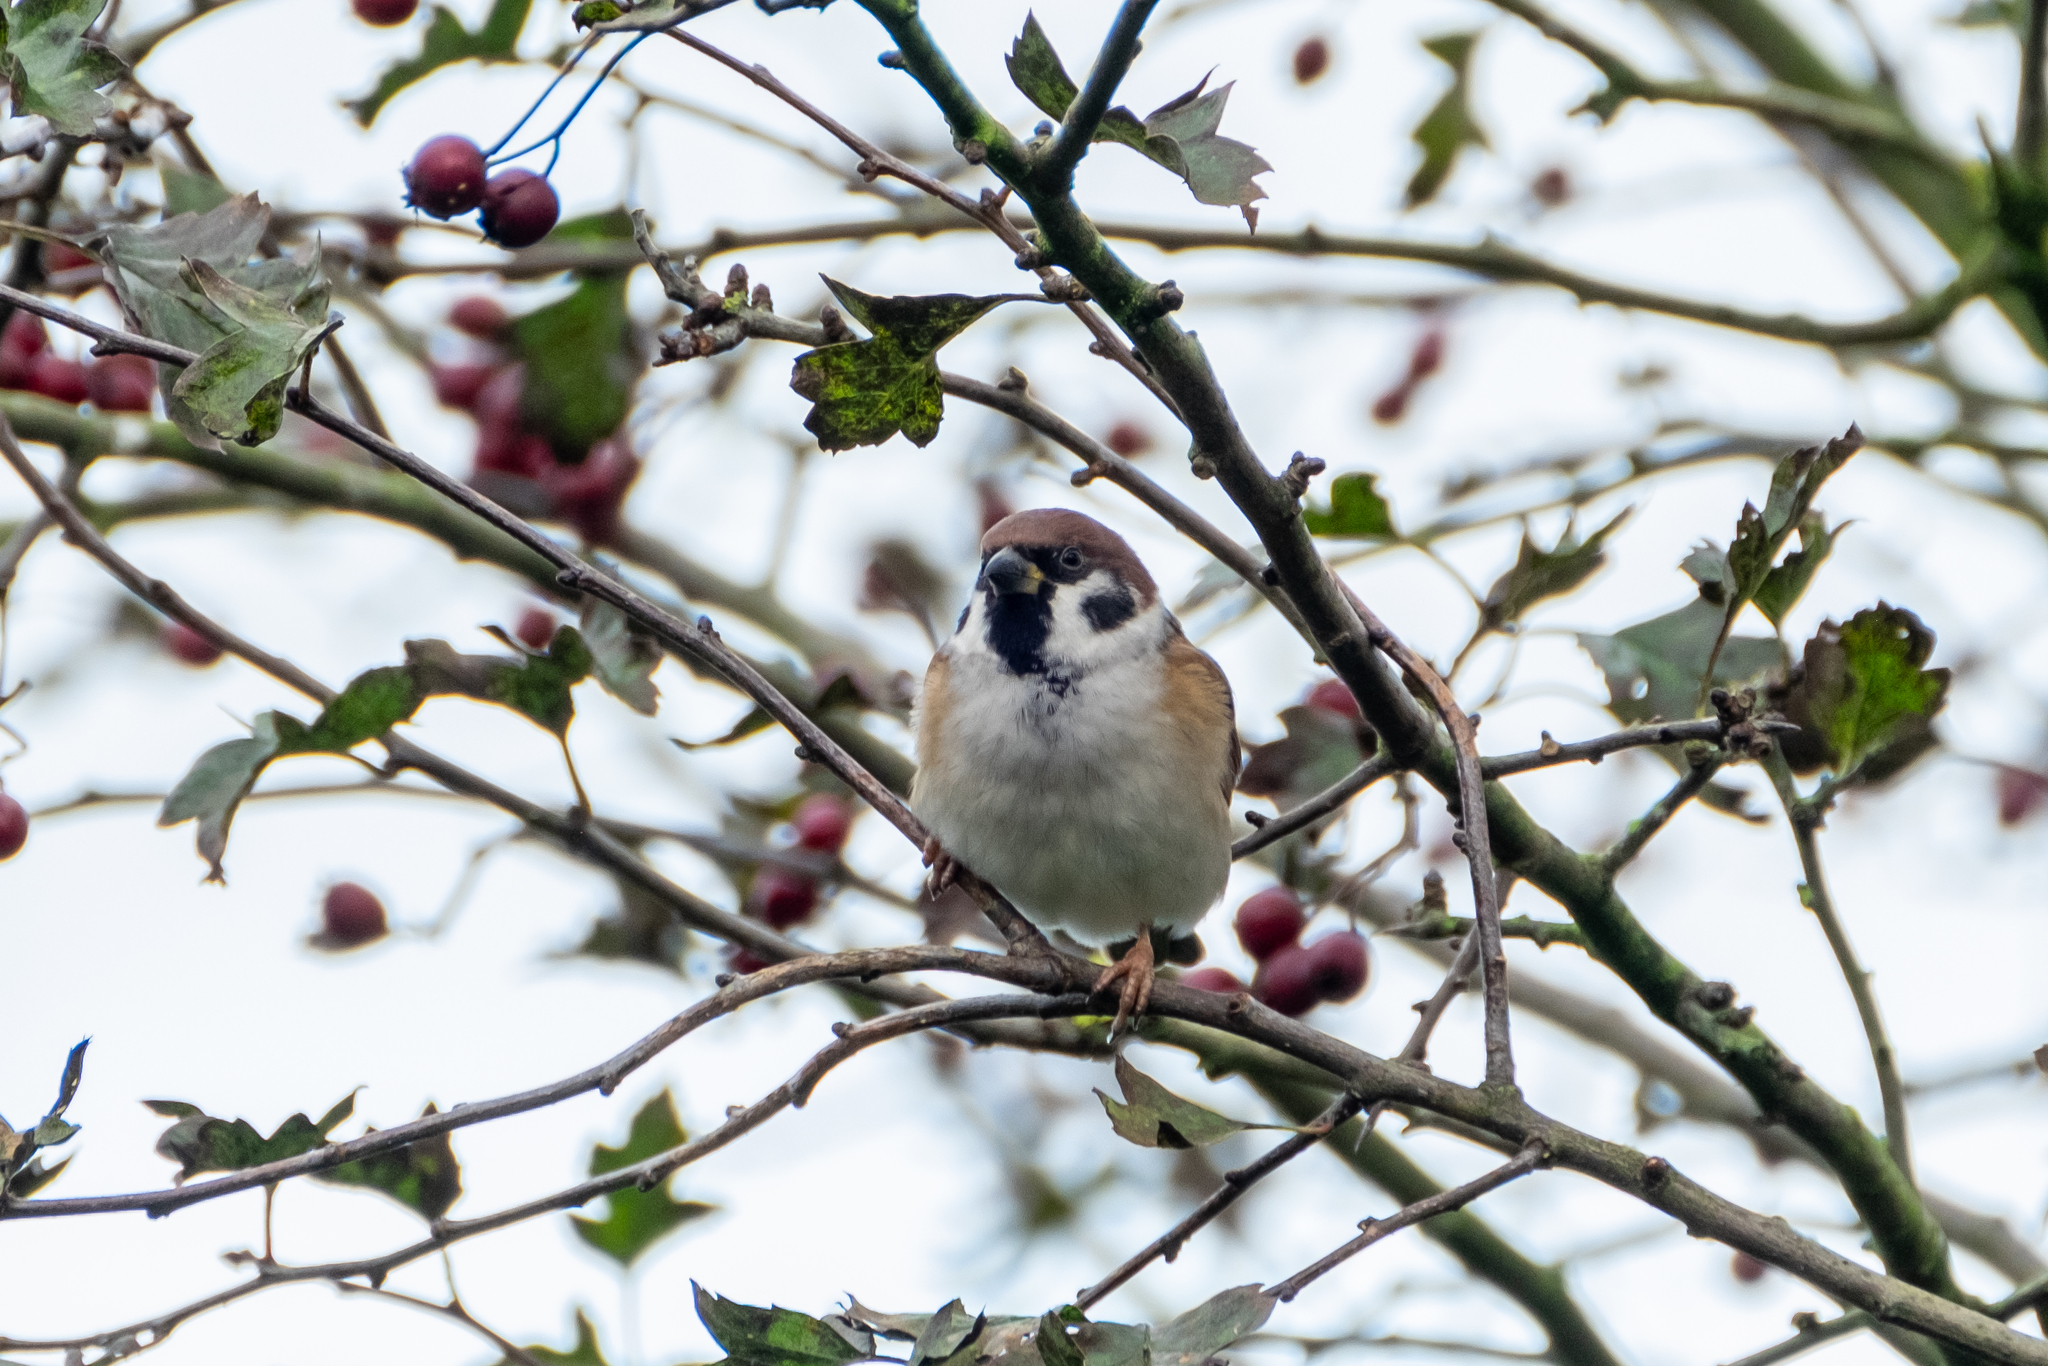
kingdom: Animalia
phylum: Chordata
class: Aves
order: Passeriformes
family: Passeridae
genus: Passer
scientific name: Passer montanus
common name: Eurasian tree sparrow
